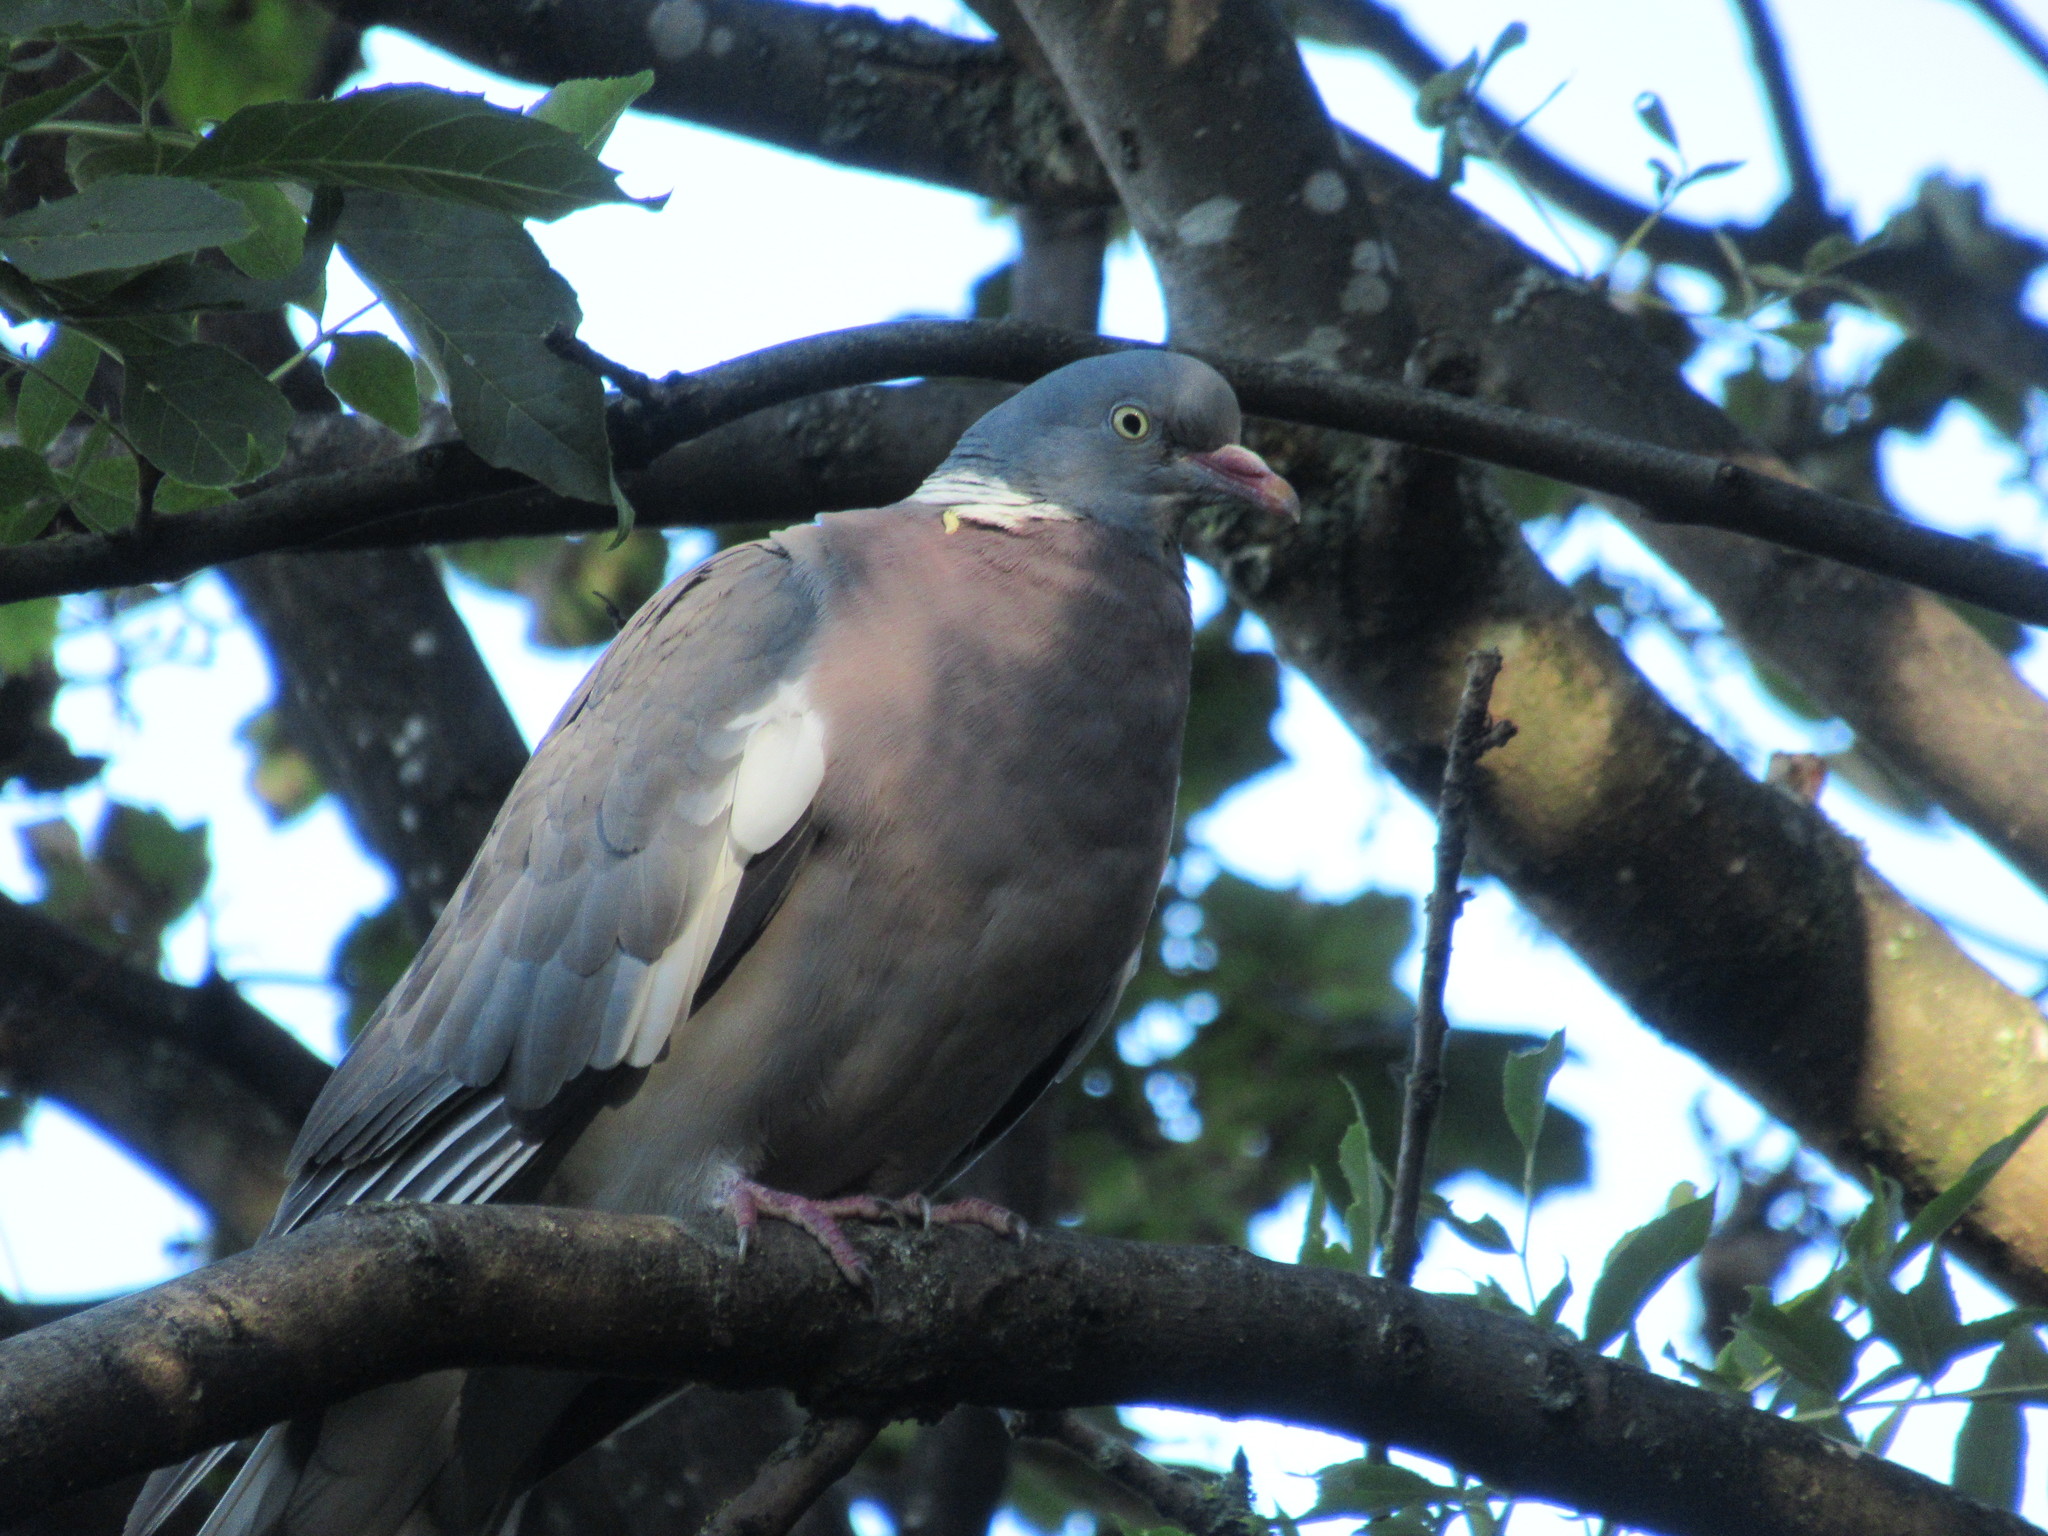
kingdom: Animalia
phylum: Chordata
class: Aves
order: Columbiformes
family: Columbidae
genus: Columba
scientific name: Columba palumbus
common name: Common wood pigeon
